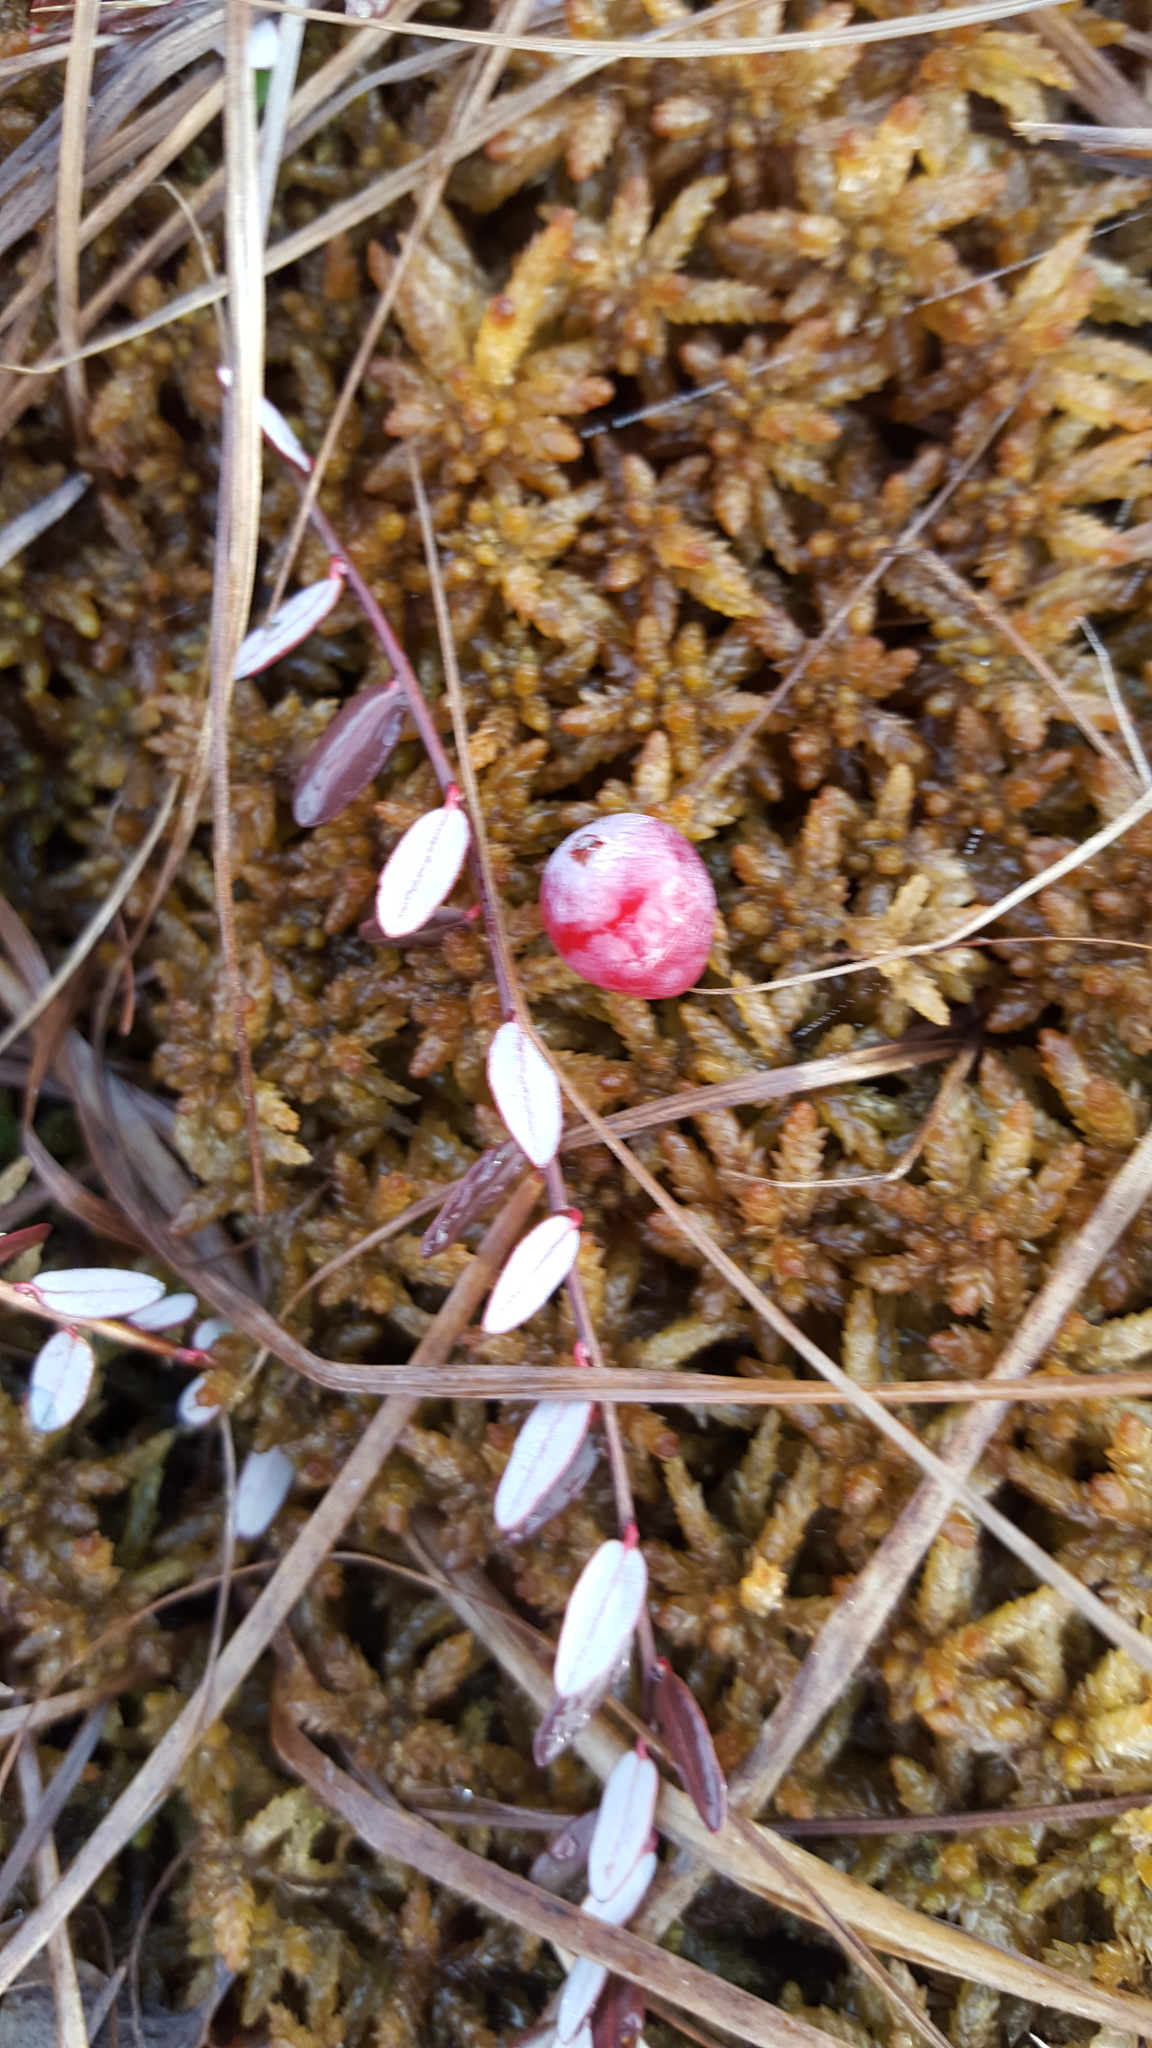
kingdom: Plantae
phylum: Tracheophyta
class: Magnoliopsida
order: Ericales
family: Ericaceae
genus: Vaccinium
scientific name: Vaccinium macrocarpon
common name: American cranberry
